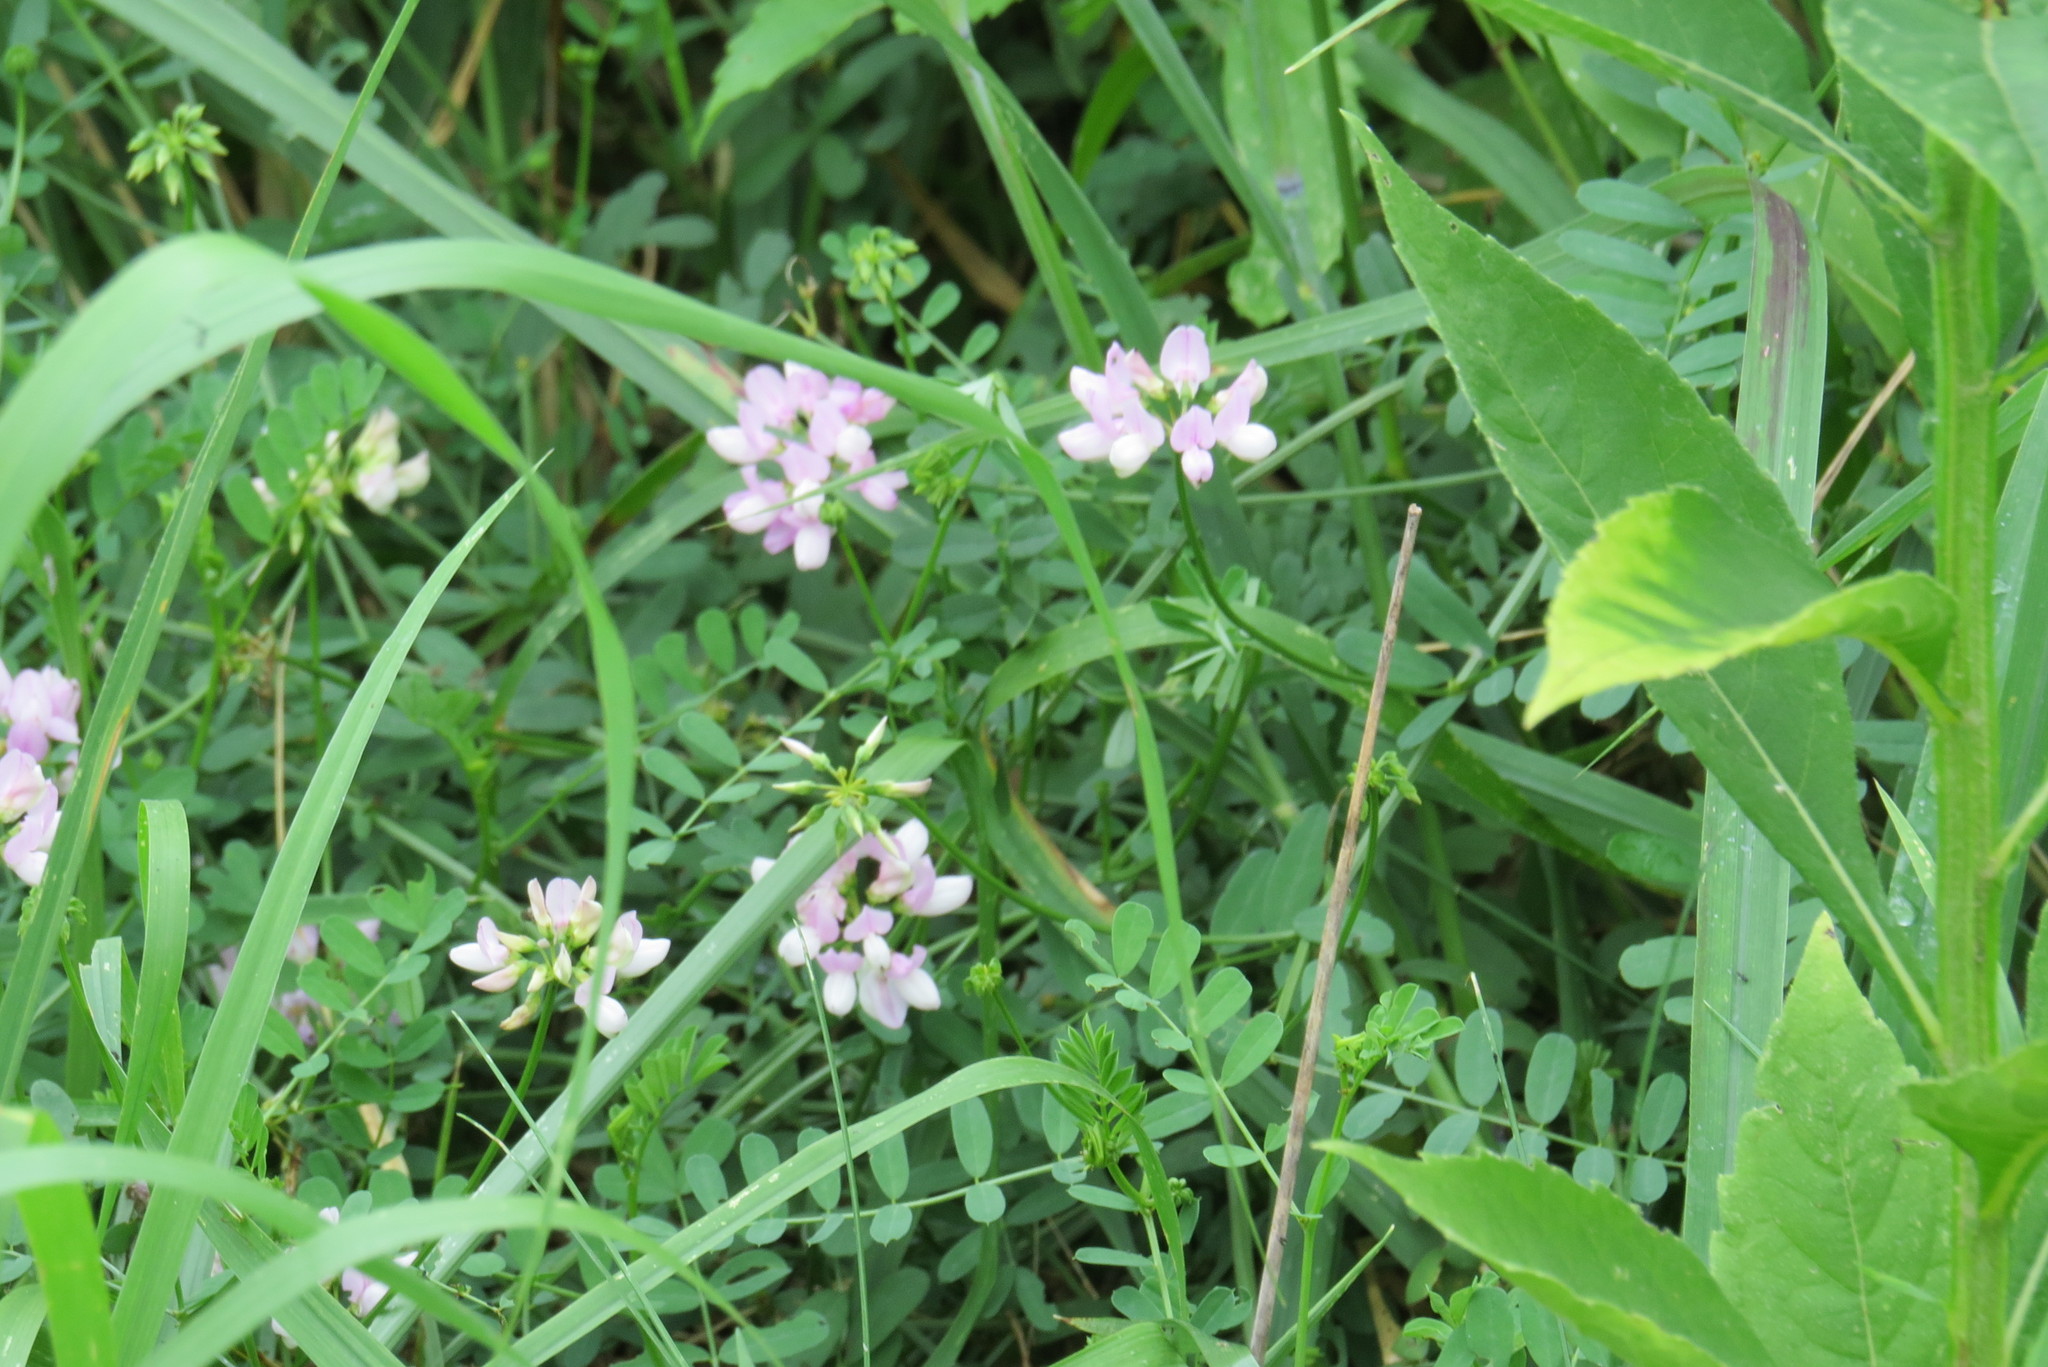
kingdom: Plantae
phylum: Tracheophyta
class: Magnoliopsida
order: Fabales
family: Fabaceae
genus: Coronilla
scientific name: Coronilla varia
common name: Crownvetch
